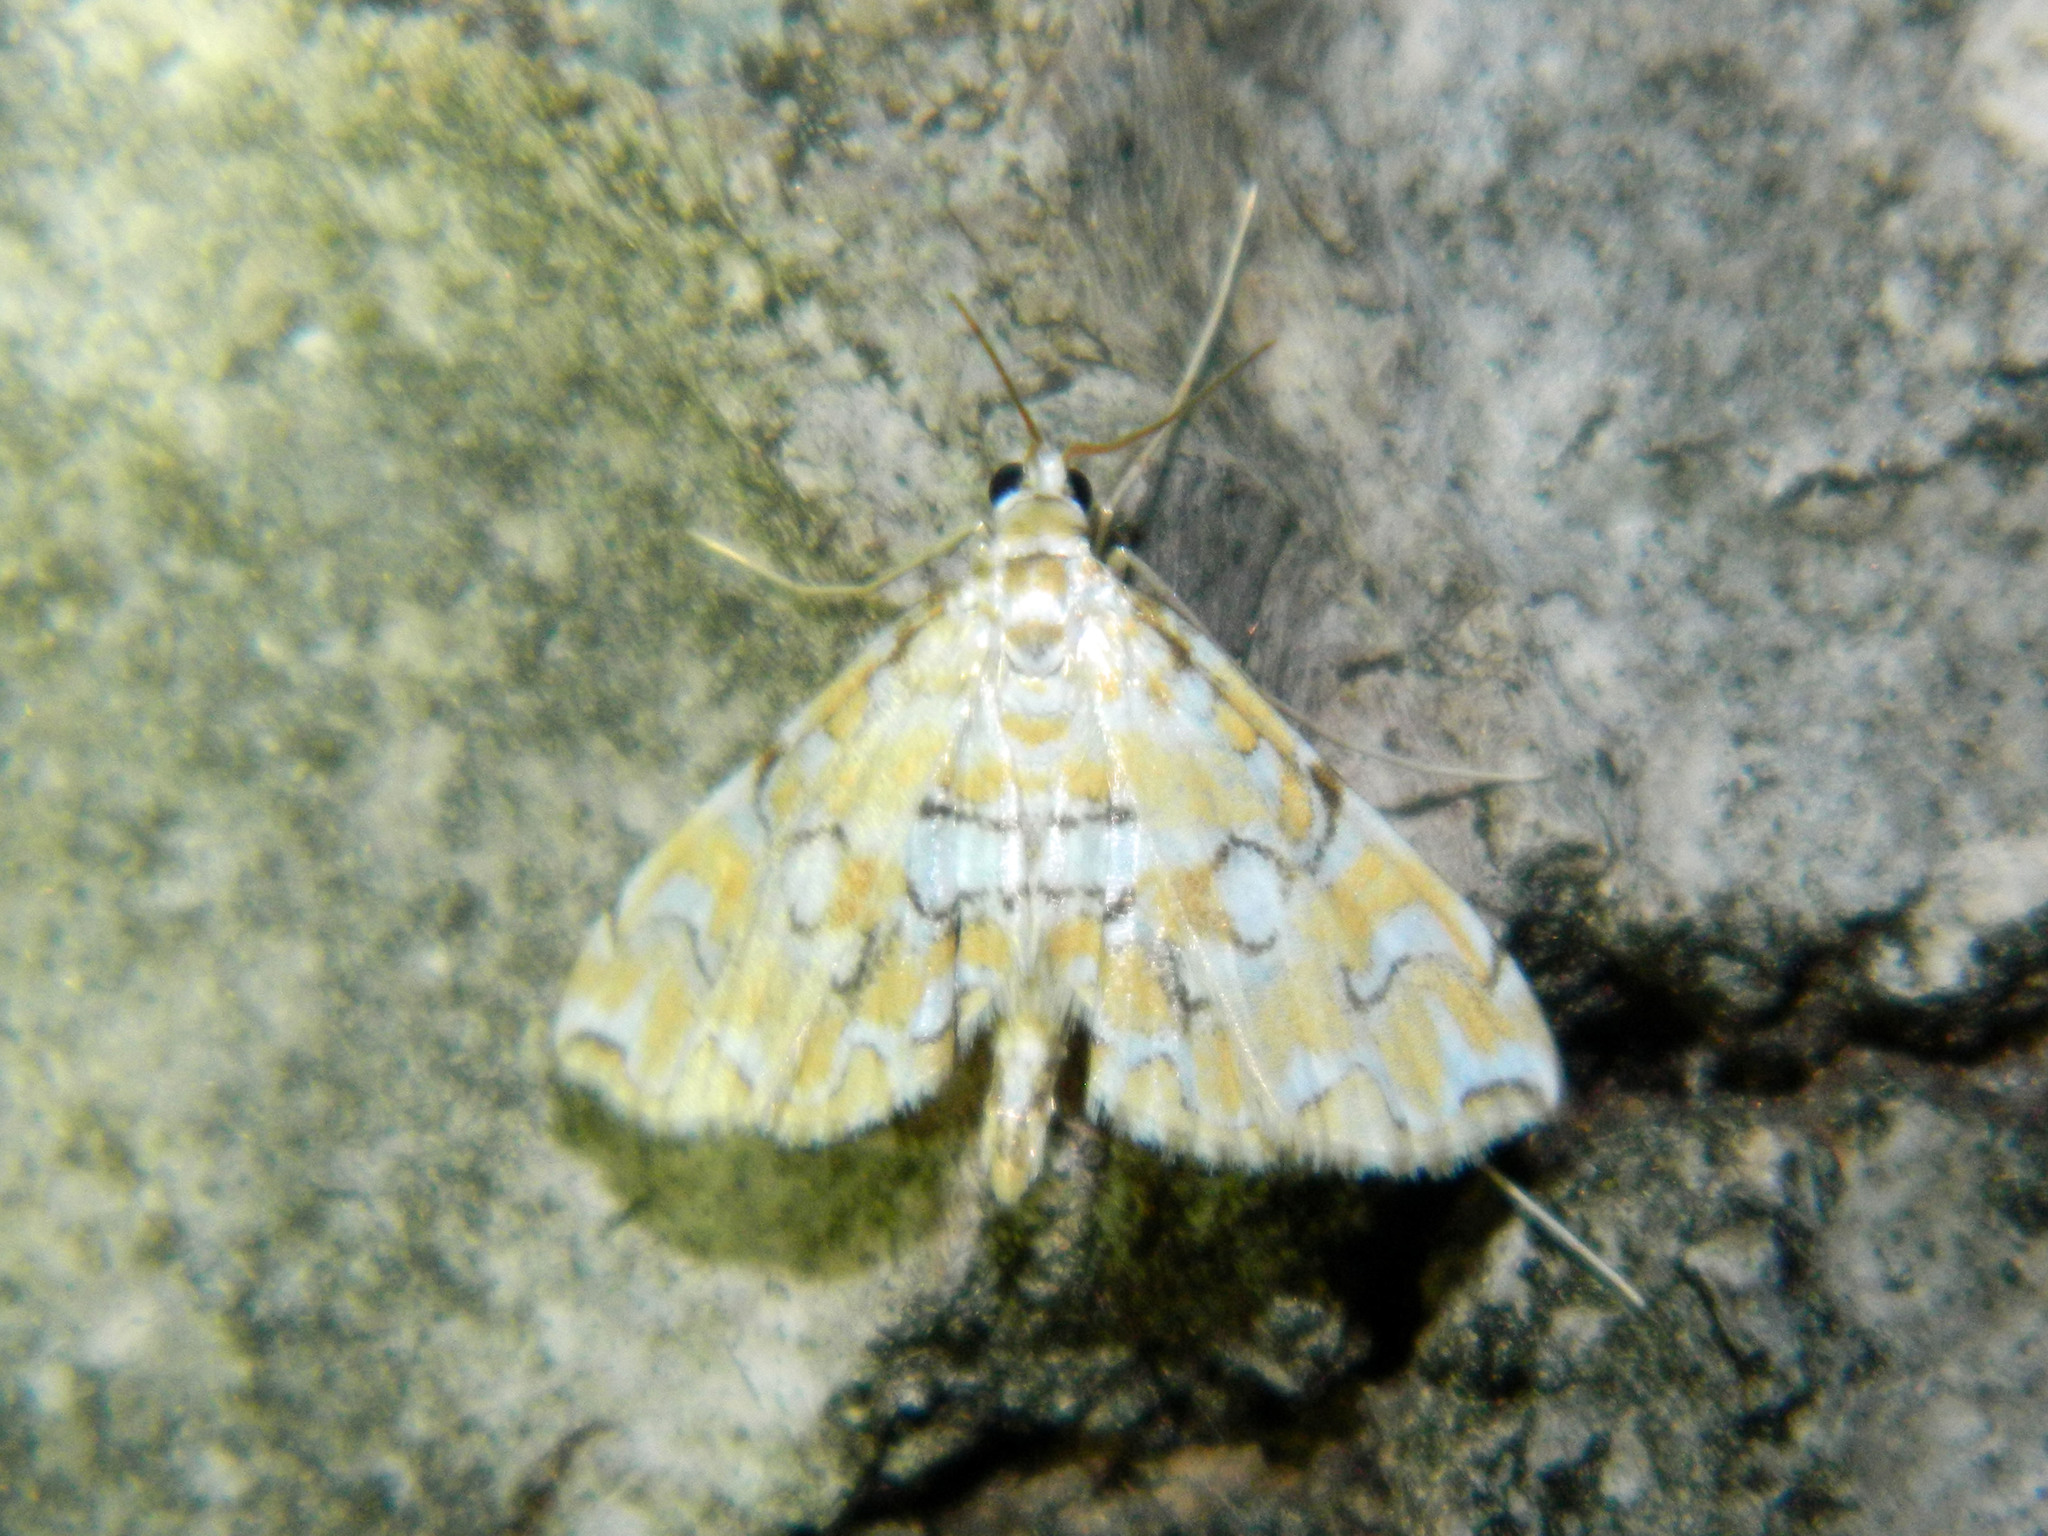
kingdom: Animalia
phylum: Arthropoda
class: Insecta
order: Lepidoptera
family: Crambidae
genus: Elophila
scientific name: Elophila icciusalis
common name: Pondside pyralid moth
